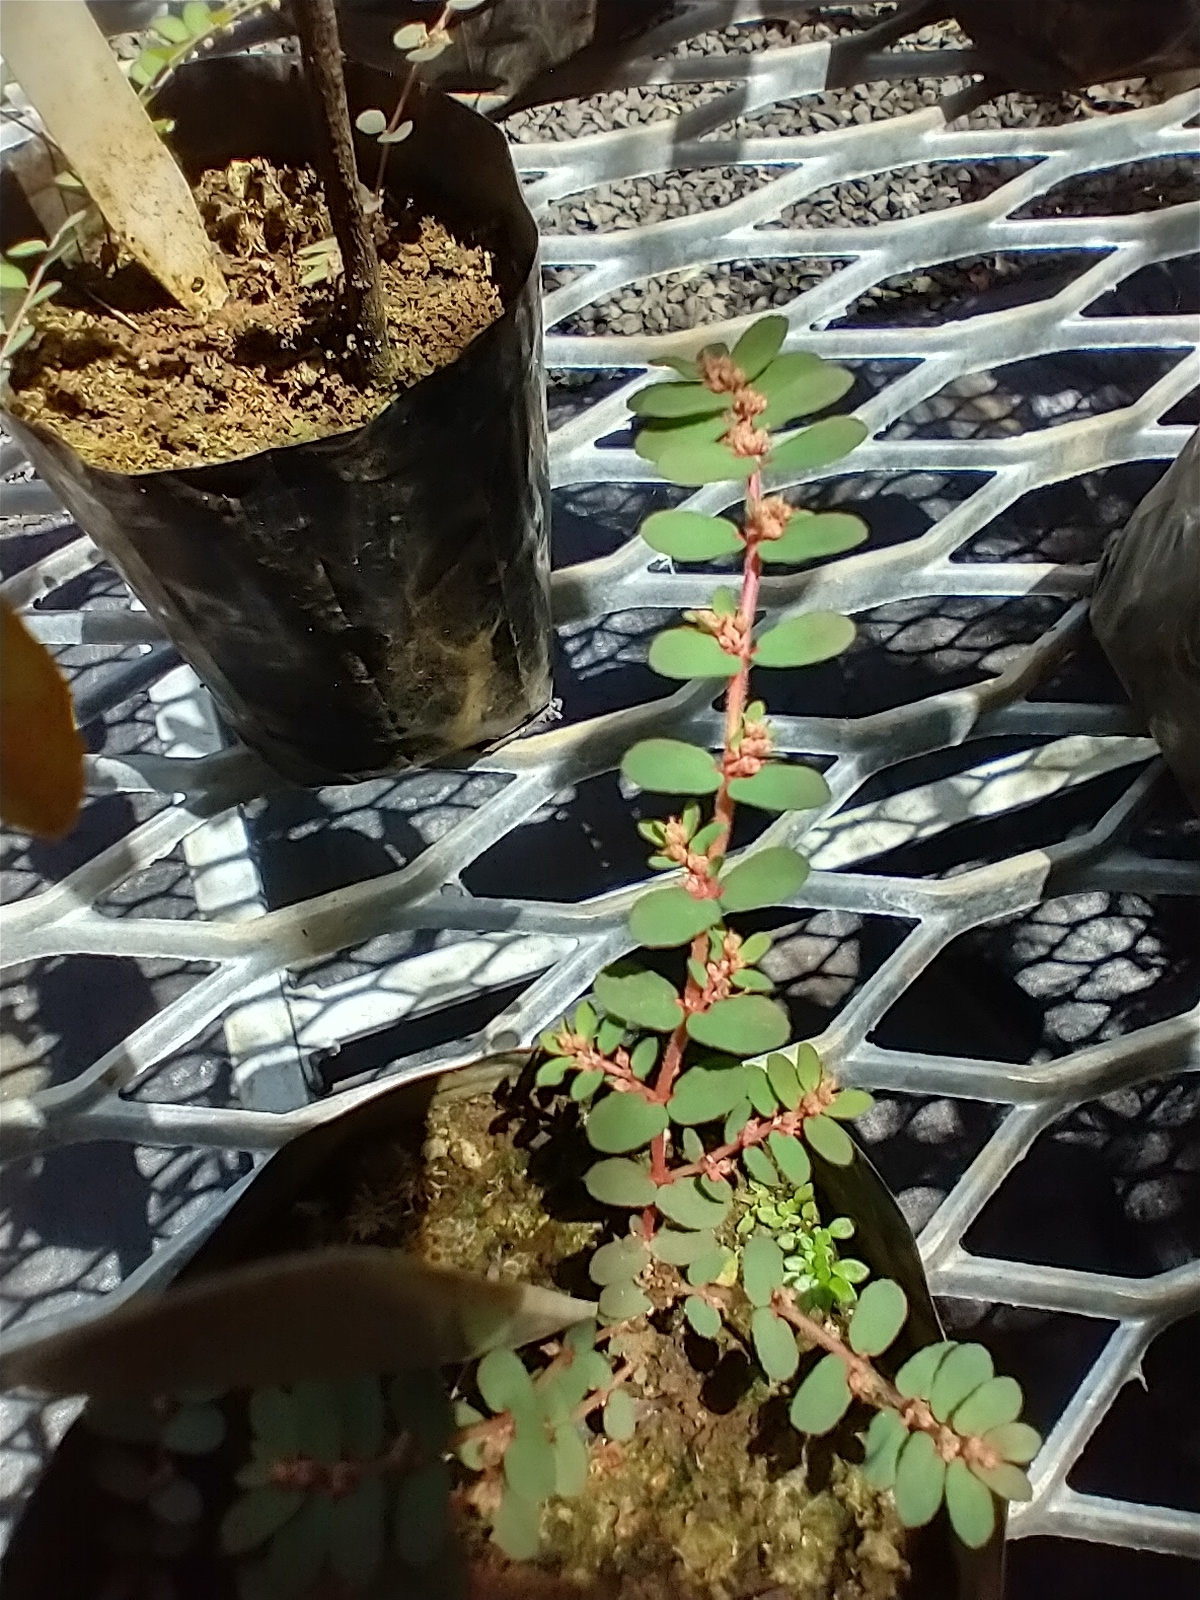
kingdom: Plantae
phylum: Tracheophyta
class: Magnoliopsida
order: Malpighiales
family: Euphorbiaceae
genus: Euphorbia
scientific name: Euphorbia thymifolia
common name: Gulf sandmat
